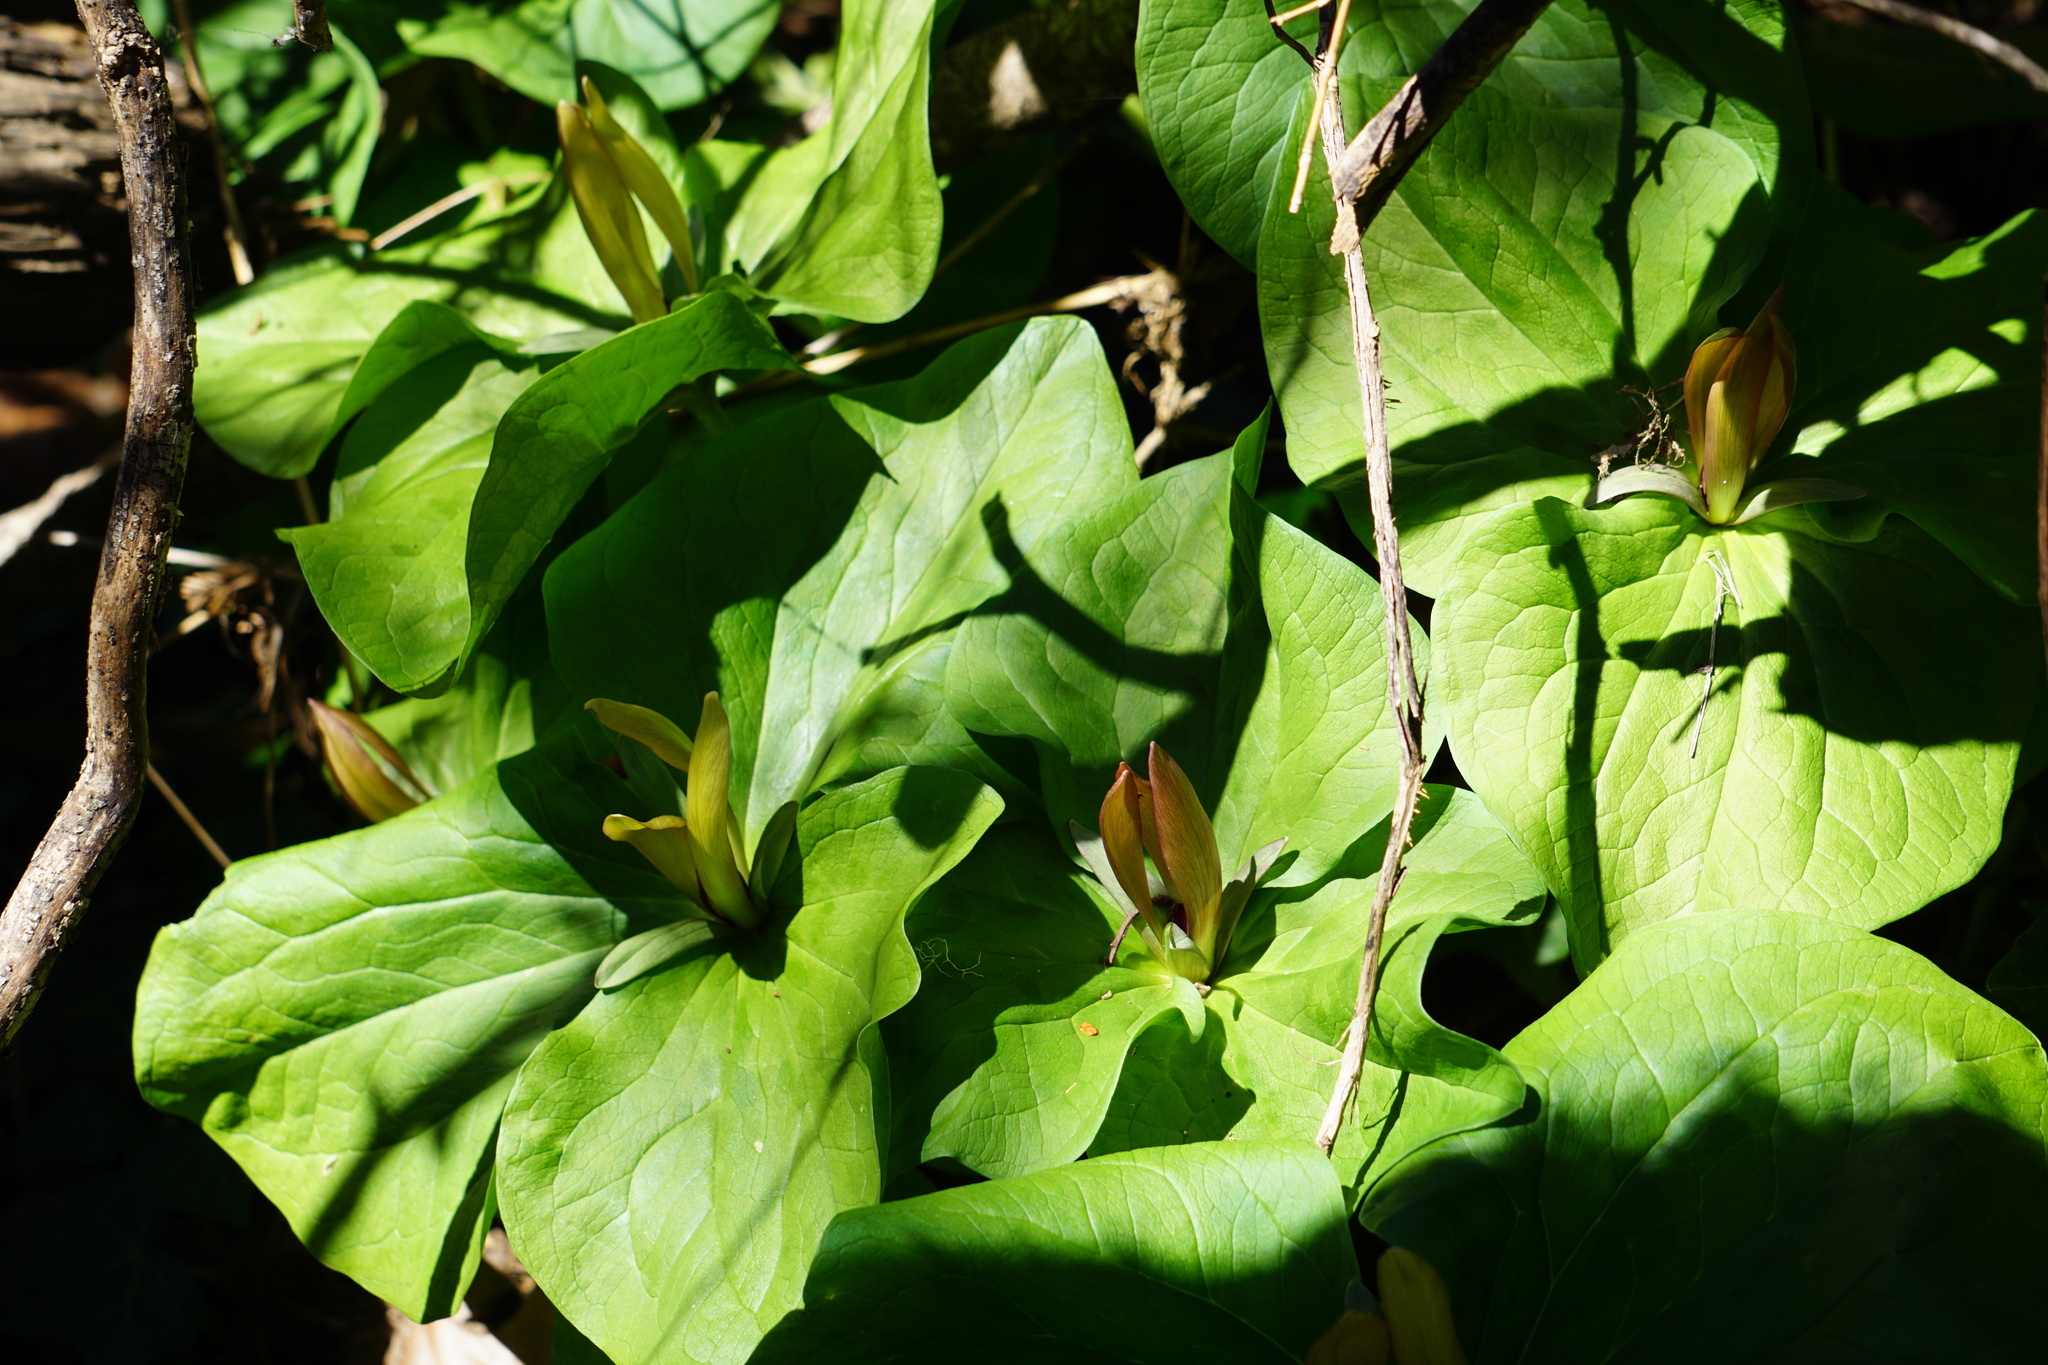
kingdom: Plantae
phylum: Tracheophyta
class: Liliopsida
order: Liliales
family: Melanthiaceae
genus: Trillium
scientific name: Trillium chloropetalum
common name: Giant trillium
